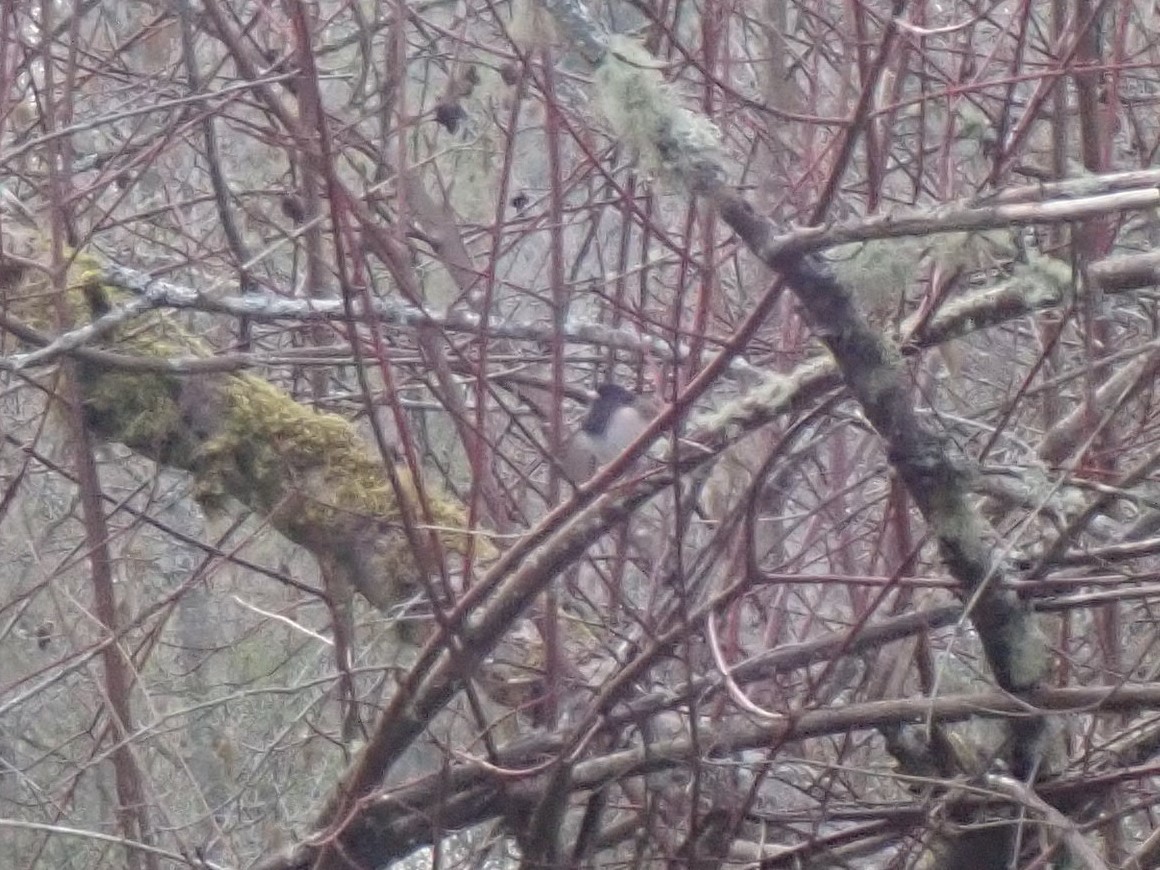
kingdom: Animalia
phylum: Chordata
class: Aves
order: Passeriformes
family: Passerellidae
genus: Junco
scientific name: Junco hyemalis
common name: Dark-eyed junco
